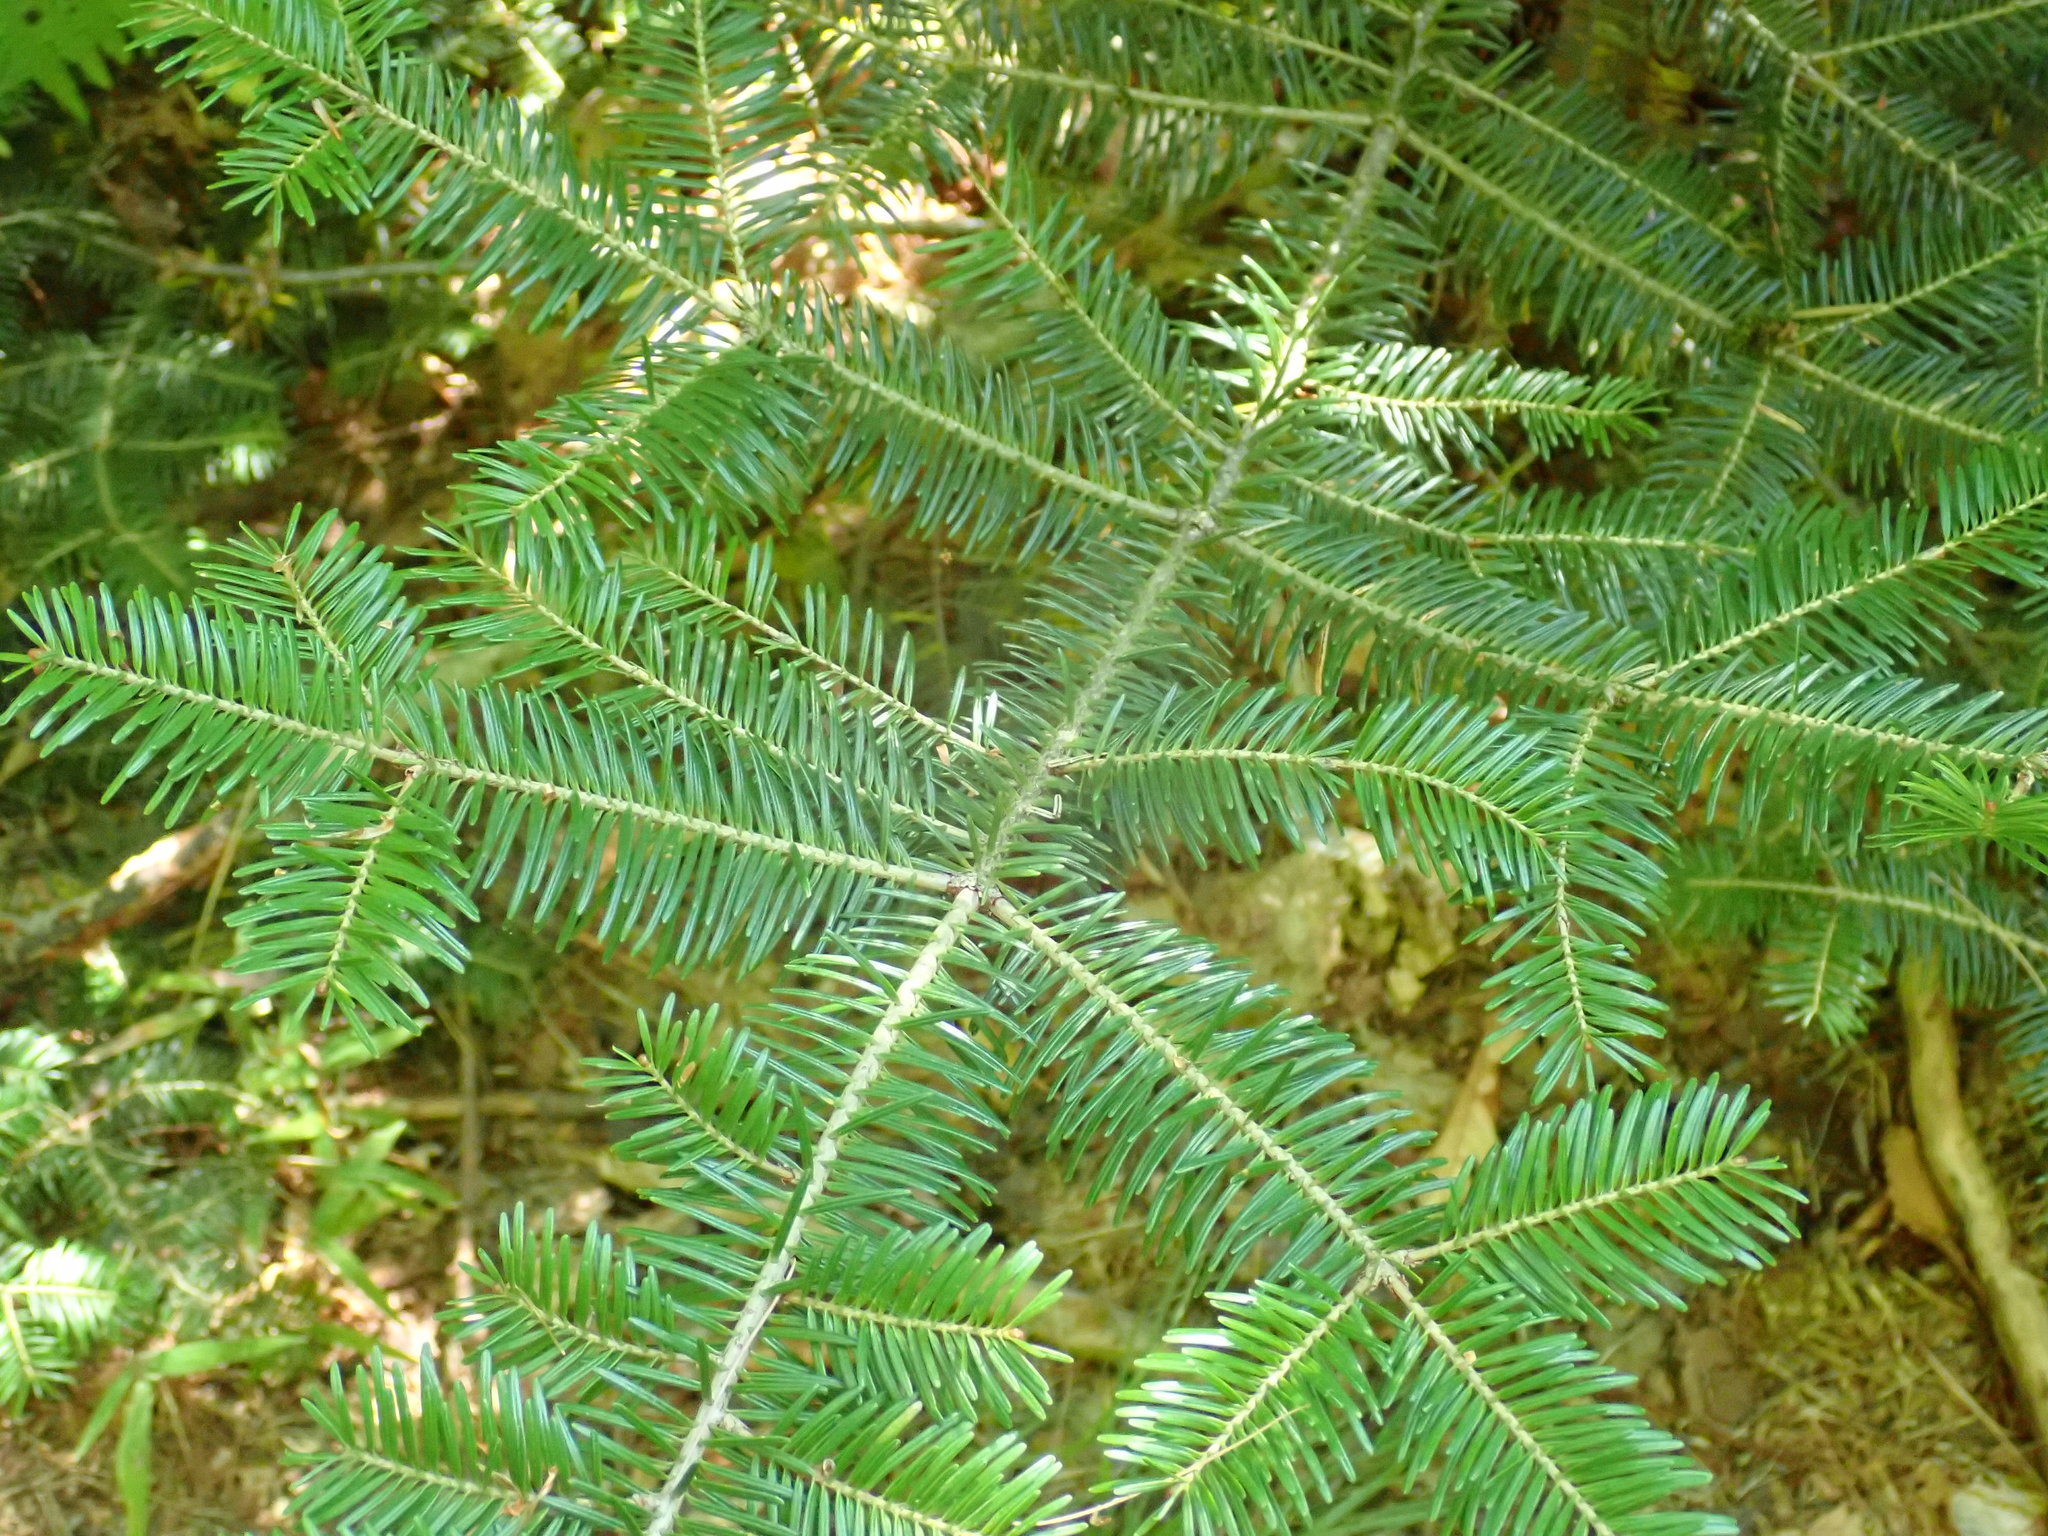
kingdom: Plantae
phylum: Tracheophyta
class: Pinopsida
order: Pinales
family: Pinaceae
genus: Abies
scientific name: Abies balsamea
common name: Balsam fir
